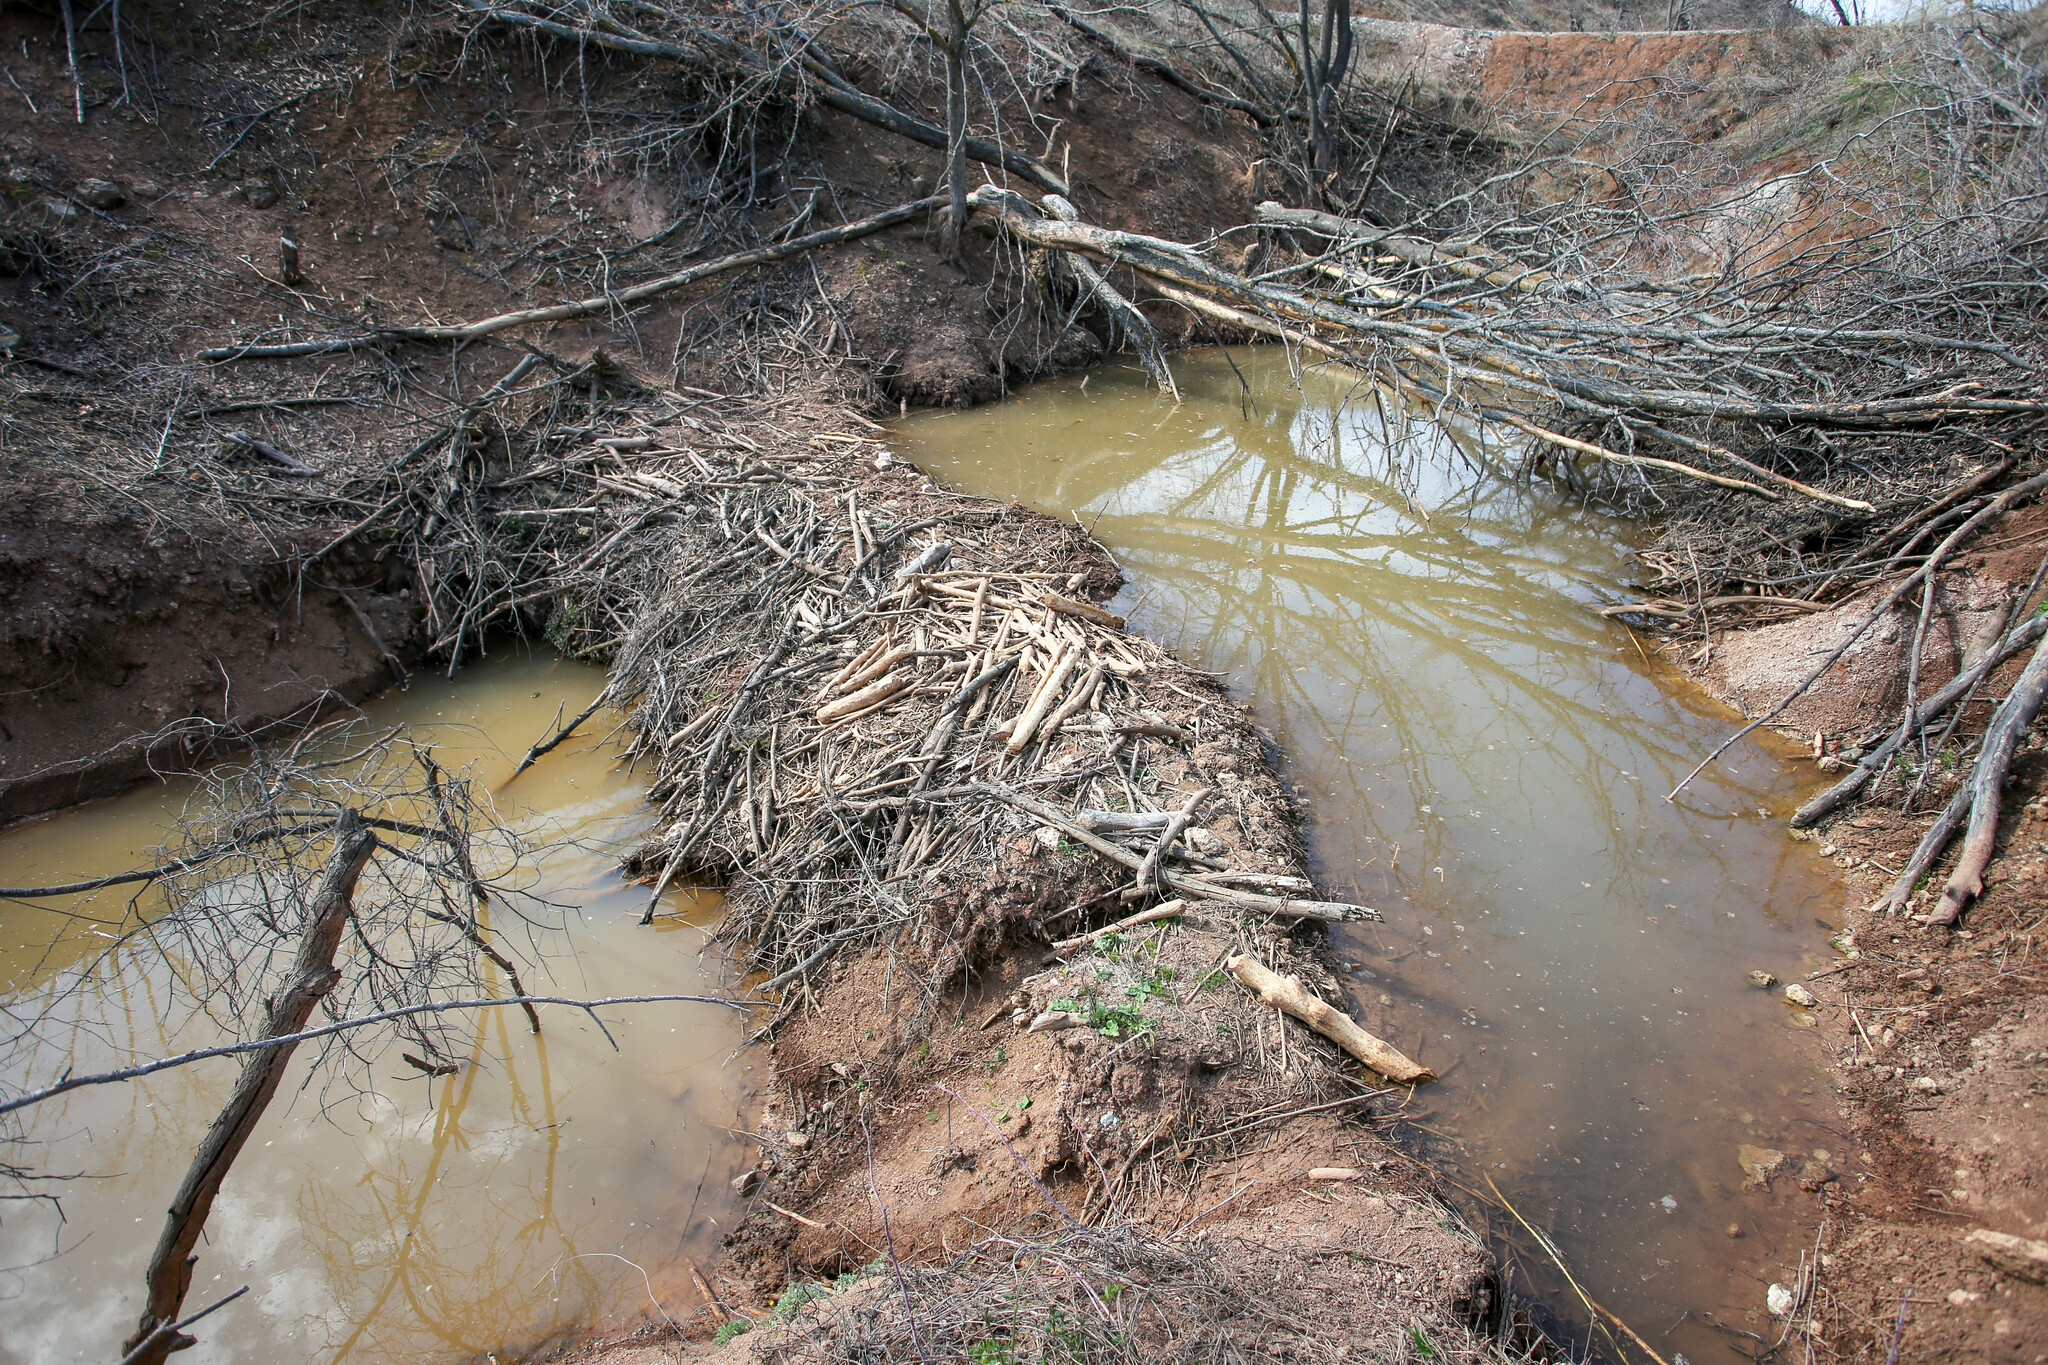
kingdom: Animalia
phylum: Chordata
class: Mammalia
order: Rodentia
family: Castoridae
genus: Castor
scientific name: Castor fiber
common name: Eurasian beaver
